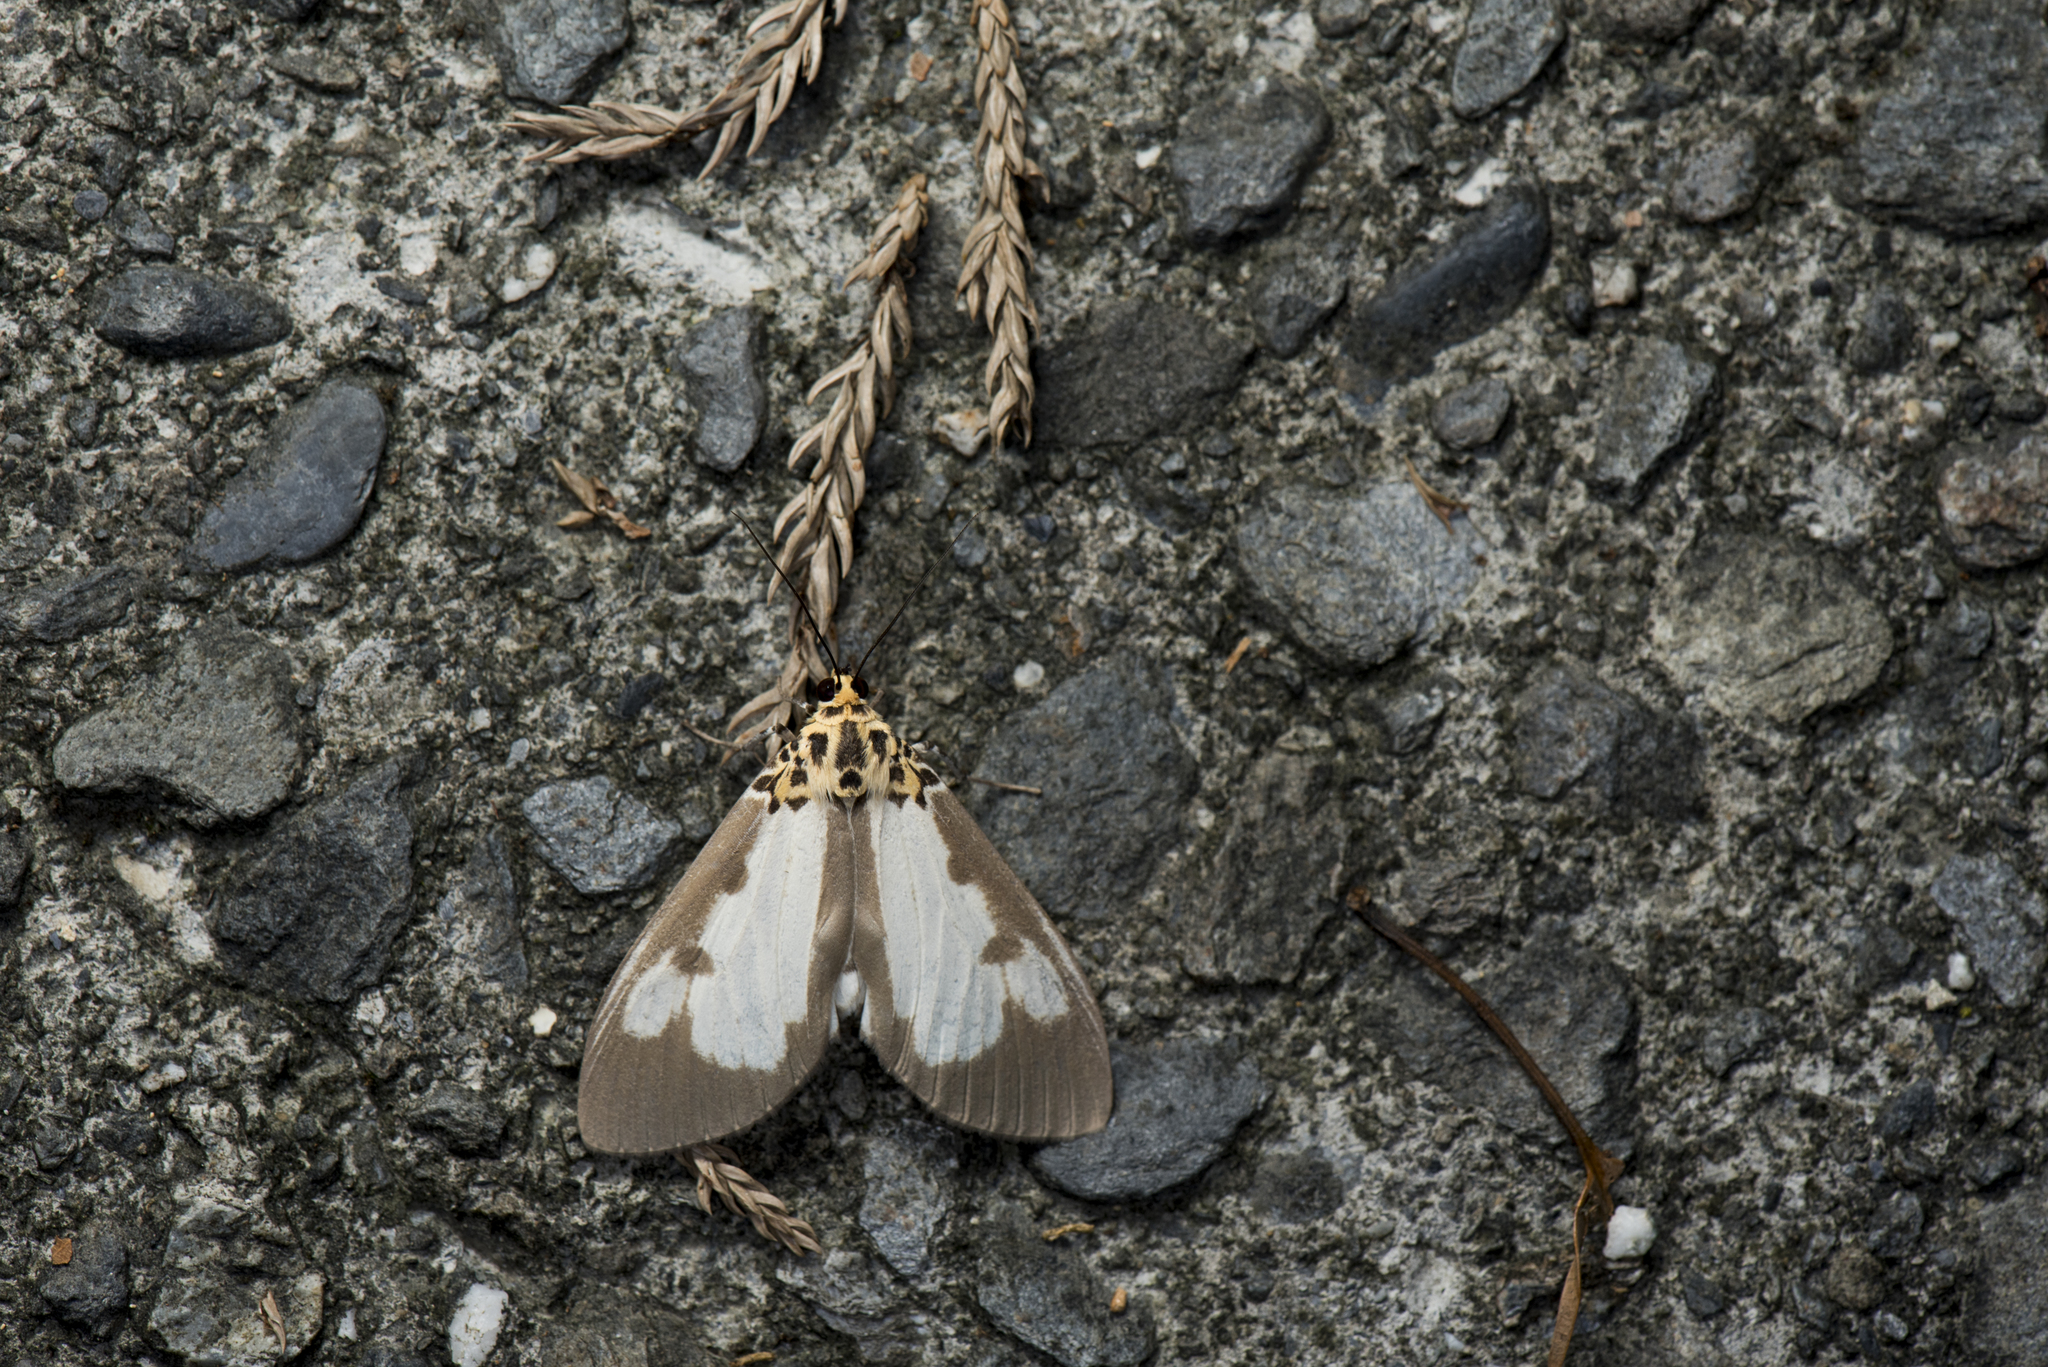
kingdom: Animalia
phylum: Arthropoda
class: Insecta
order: Lepidoptera
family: Erebidae
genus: Asota
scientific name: Asota plana
